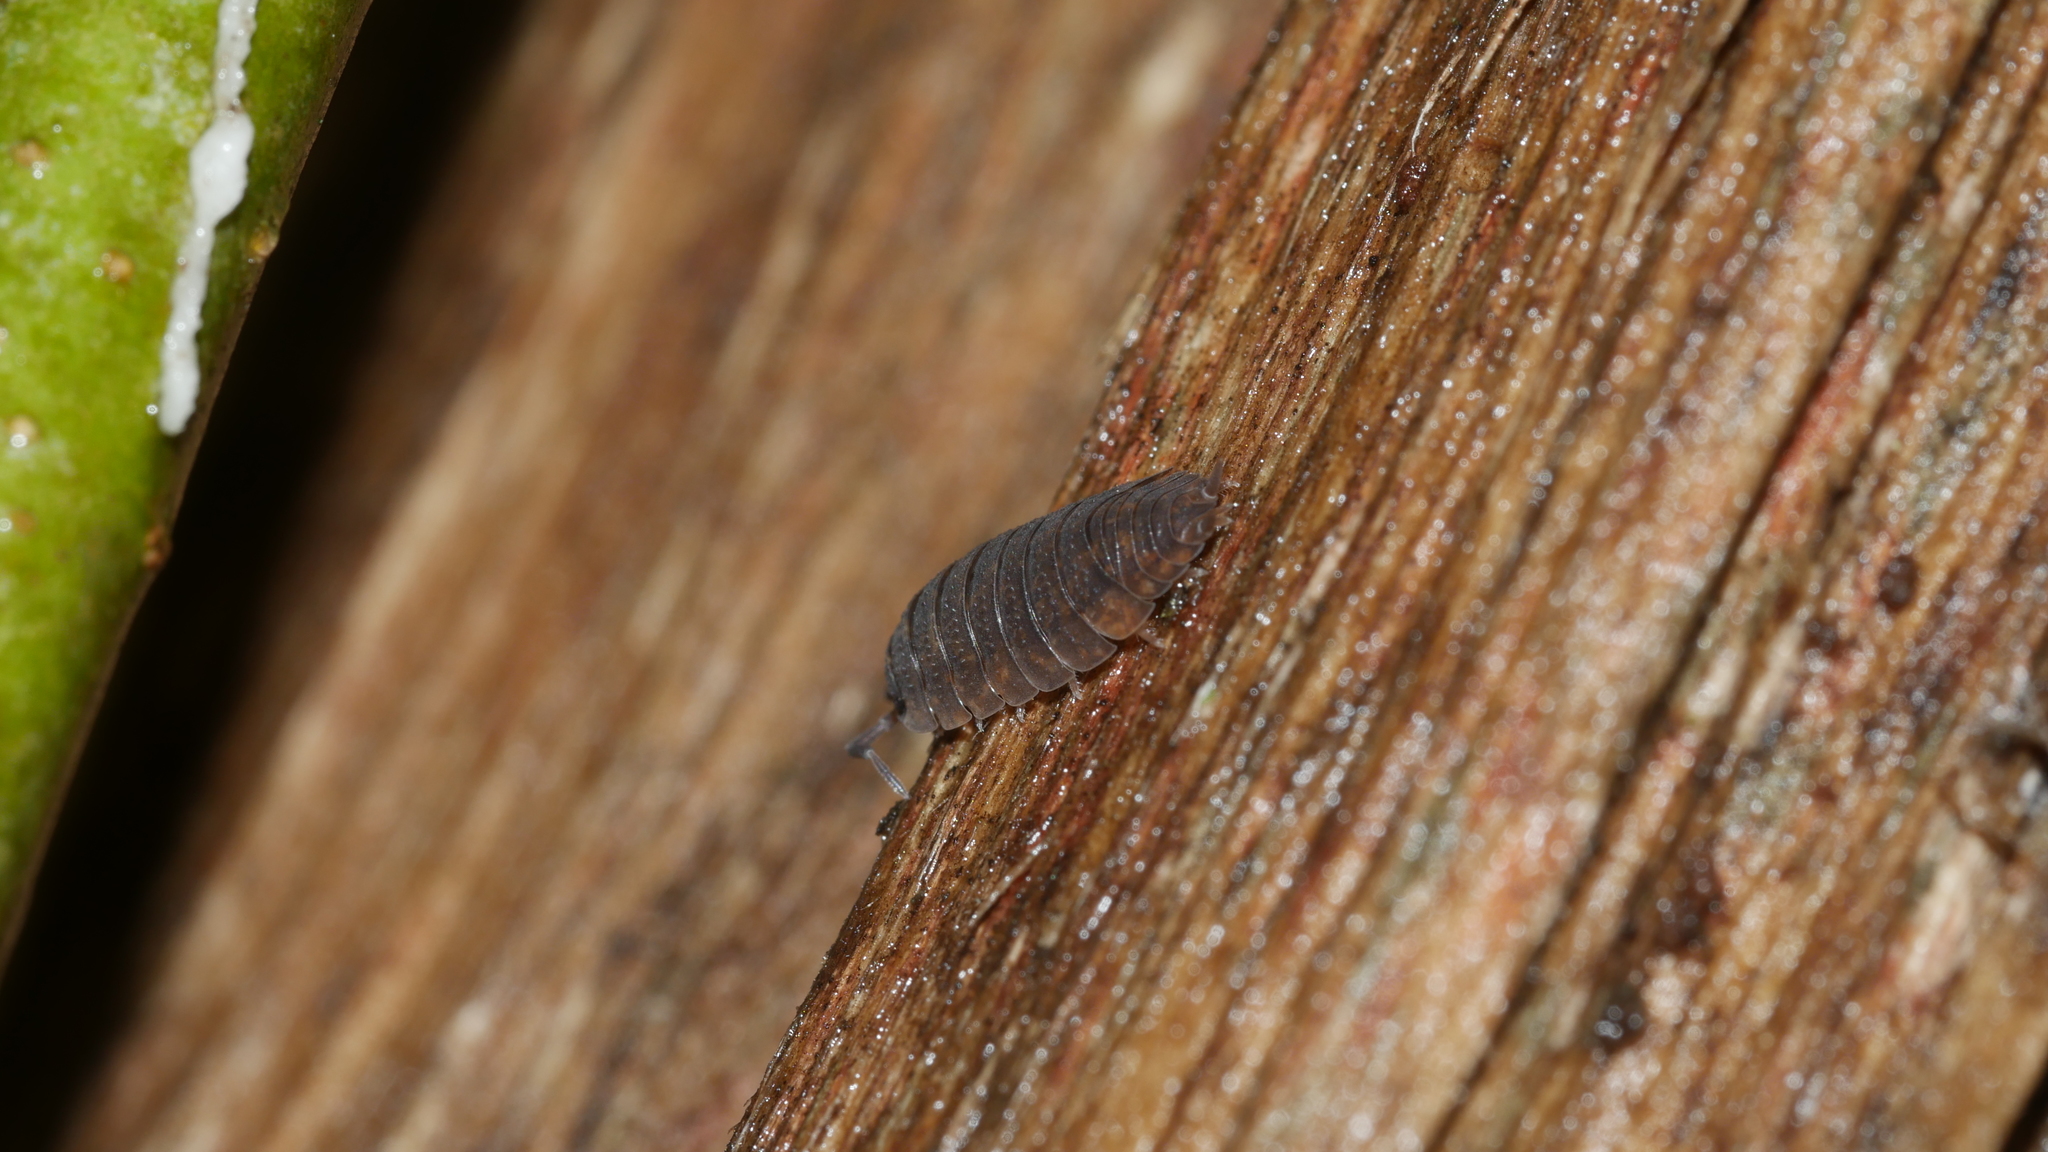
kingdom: Animalia
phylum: Arthropoda
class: Malacostraca
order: Isopoda
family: Porcellionidae
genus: Porcellio
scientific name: Porcellio scaber
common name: Common rough woodlouse
